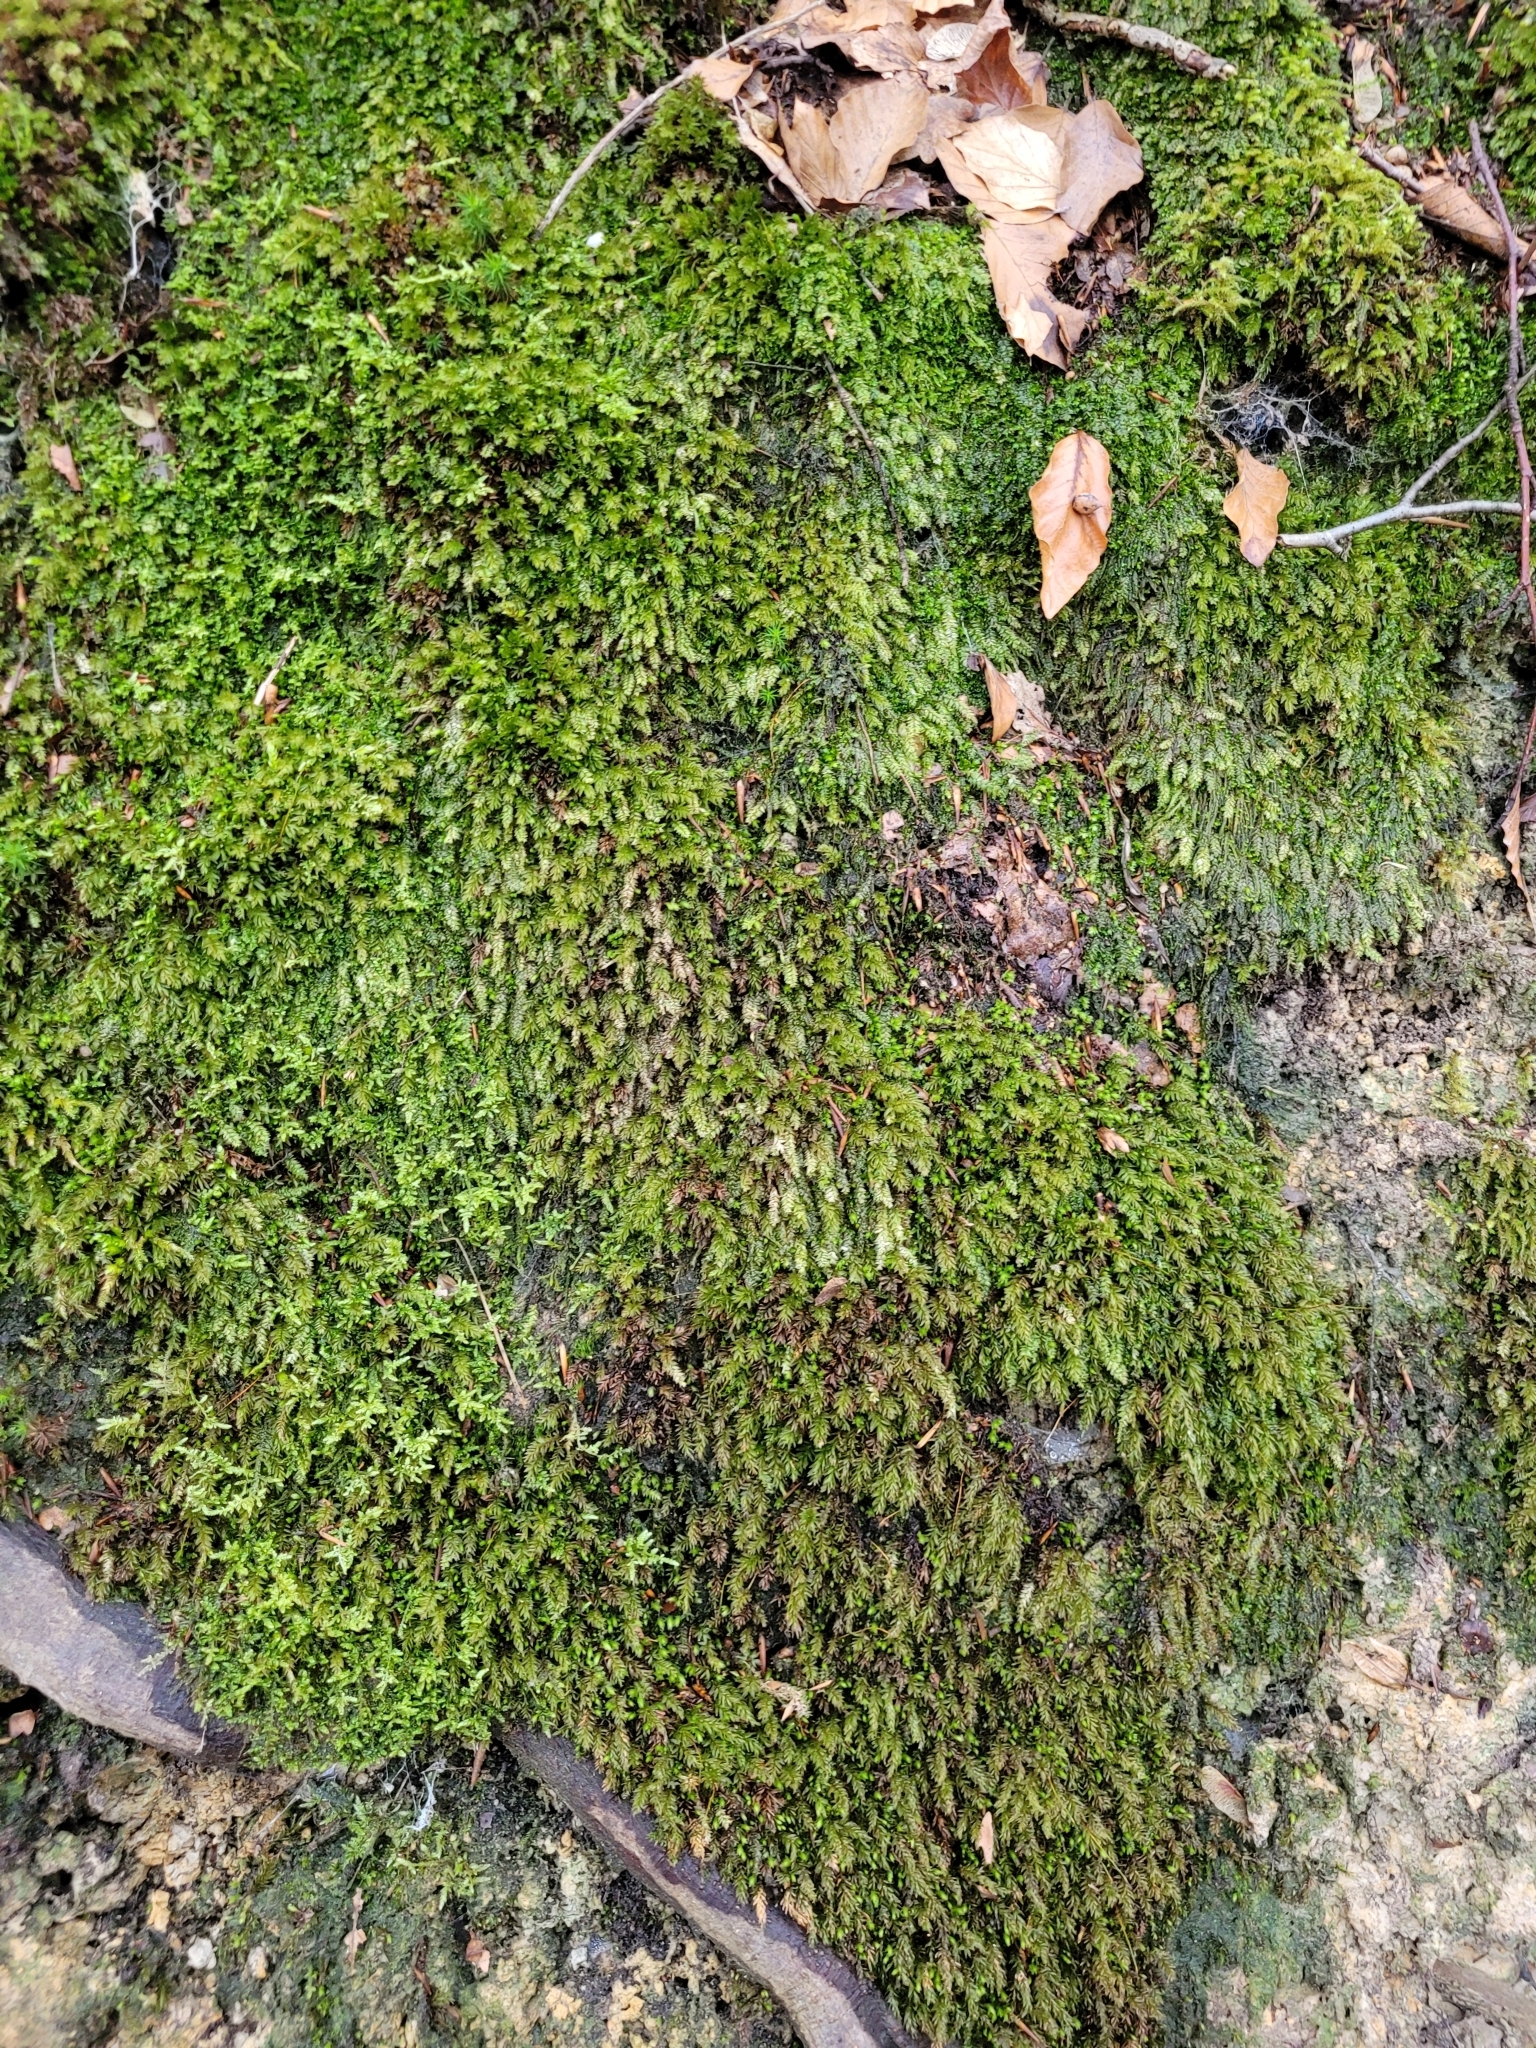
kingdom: Plantae
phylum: Bryophyta
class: Bryopsida
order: Bryales
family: Mniaceae
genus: Mnium
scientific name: Mnium hornum
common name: Swan's-neck leafy moss
